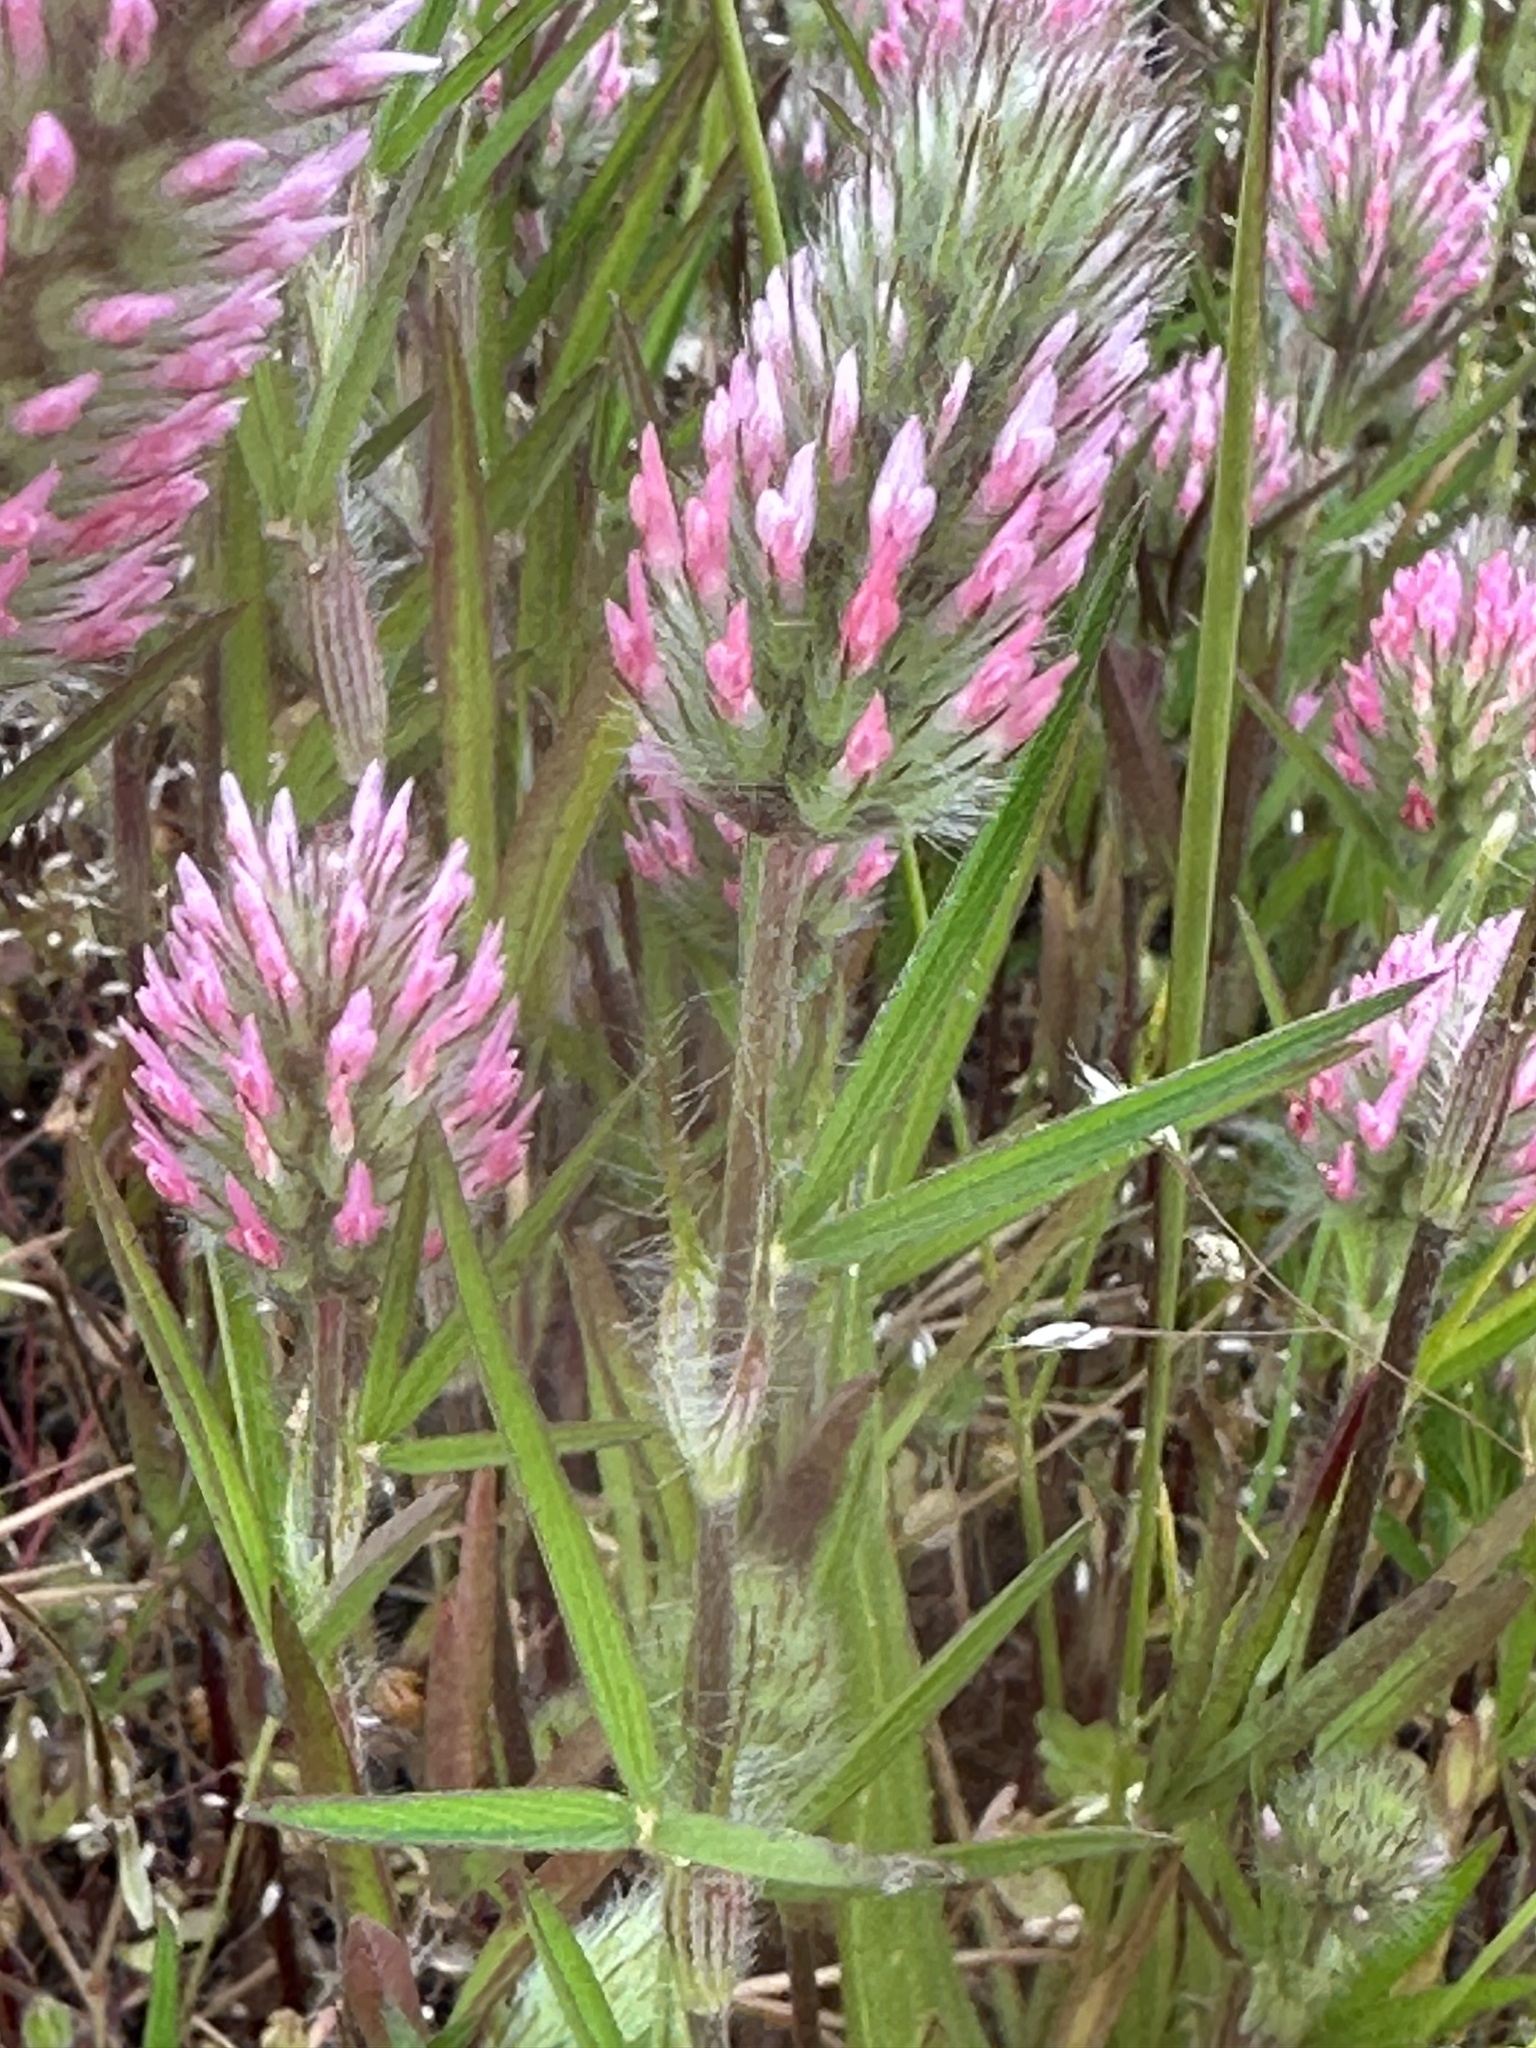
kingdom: Plantae
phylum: Tracheophyta
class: Magnoliopsida
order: Fabales
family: Fabaceae
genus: Trifolium
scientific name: Trifolium angustifolium
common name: Narrow clover
